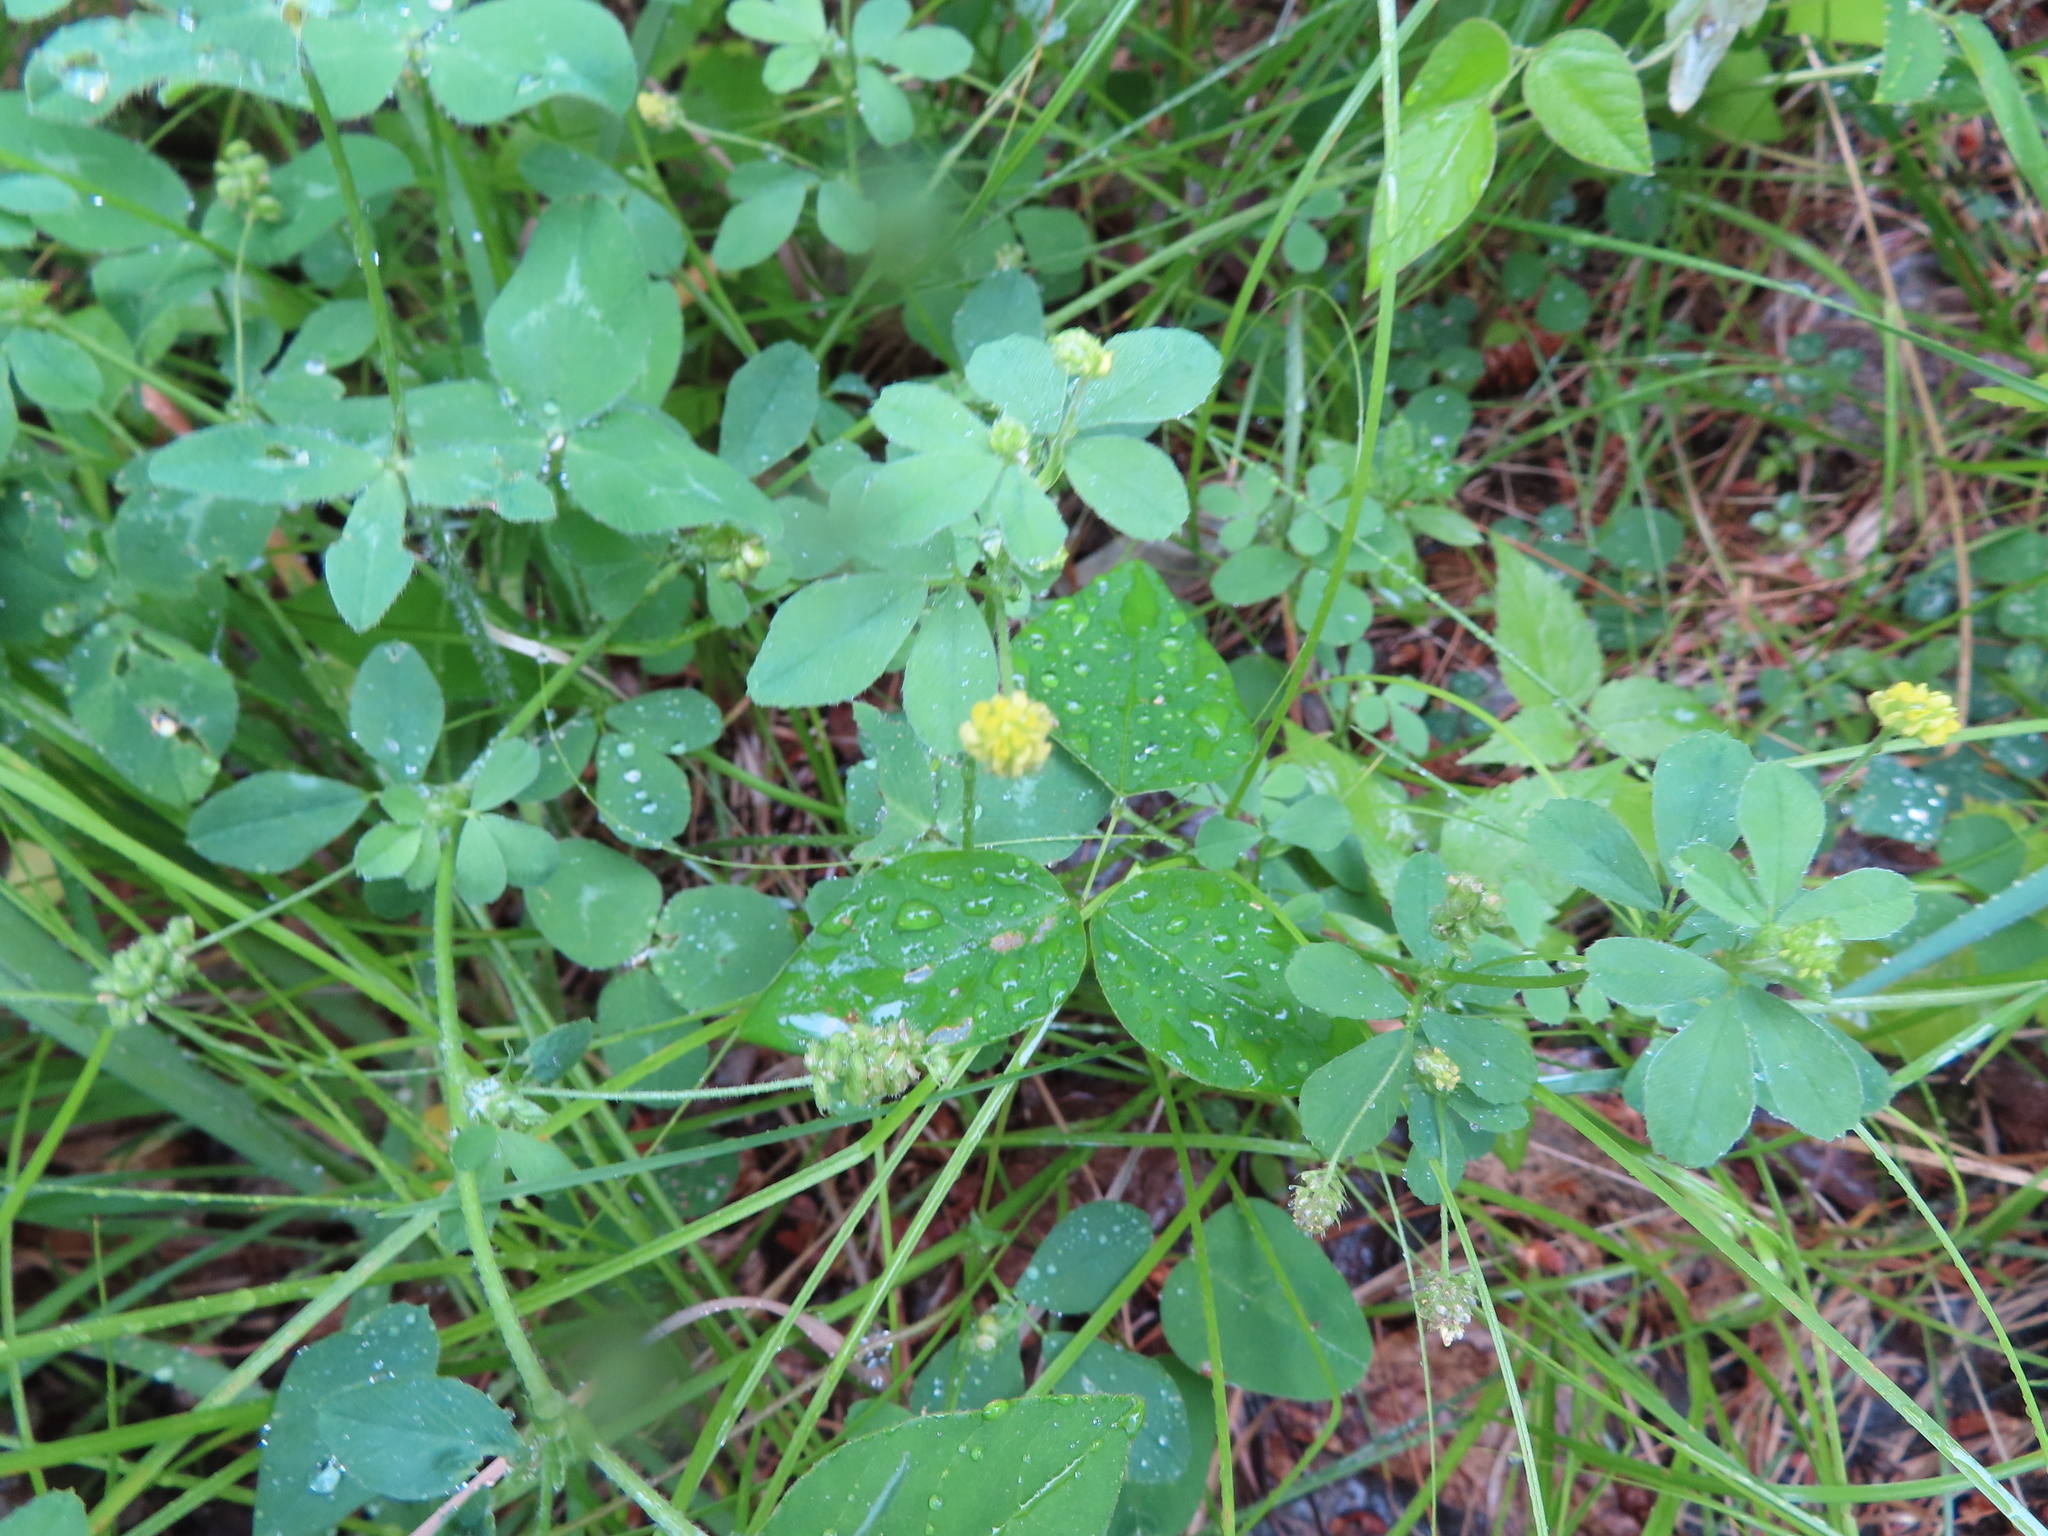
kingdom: Plantae
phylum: Tracheophyta
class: Magnoliopsida
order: Fabales
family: Fabaceae
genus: Medicago
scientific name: Medicago lupulina
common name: Black medick
